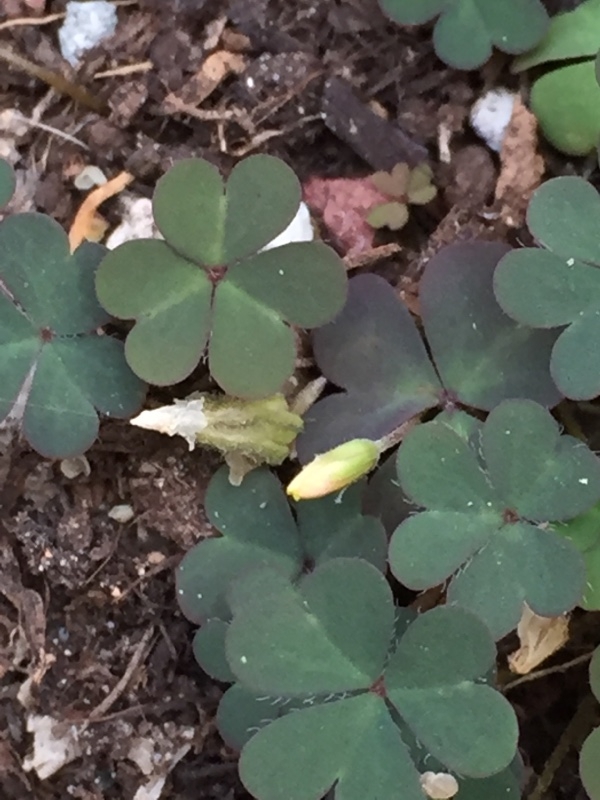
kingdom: Plantae
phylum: Tracheophyta
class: Magnoliopsida
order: Oxalidales
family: Oxalidaceae
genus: Oxalis
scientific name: Oxalis corniculata
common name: Procumbent yellow-sorrel
